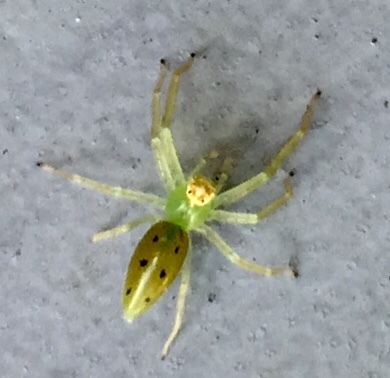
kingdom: Animalia
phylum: Arthropoda
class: Arachnida
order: Araneae
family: Salticidae
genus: Lyssomanes
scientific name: Lyssomanes viridis
